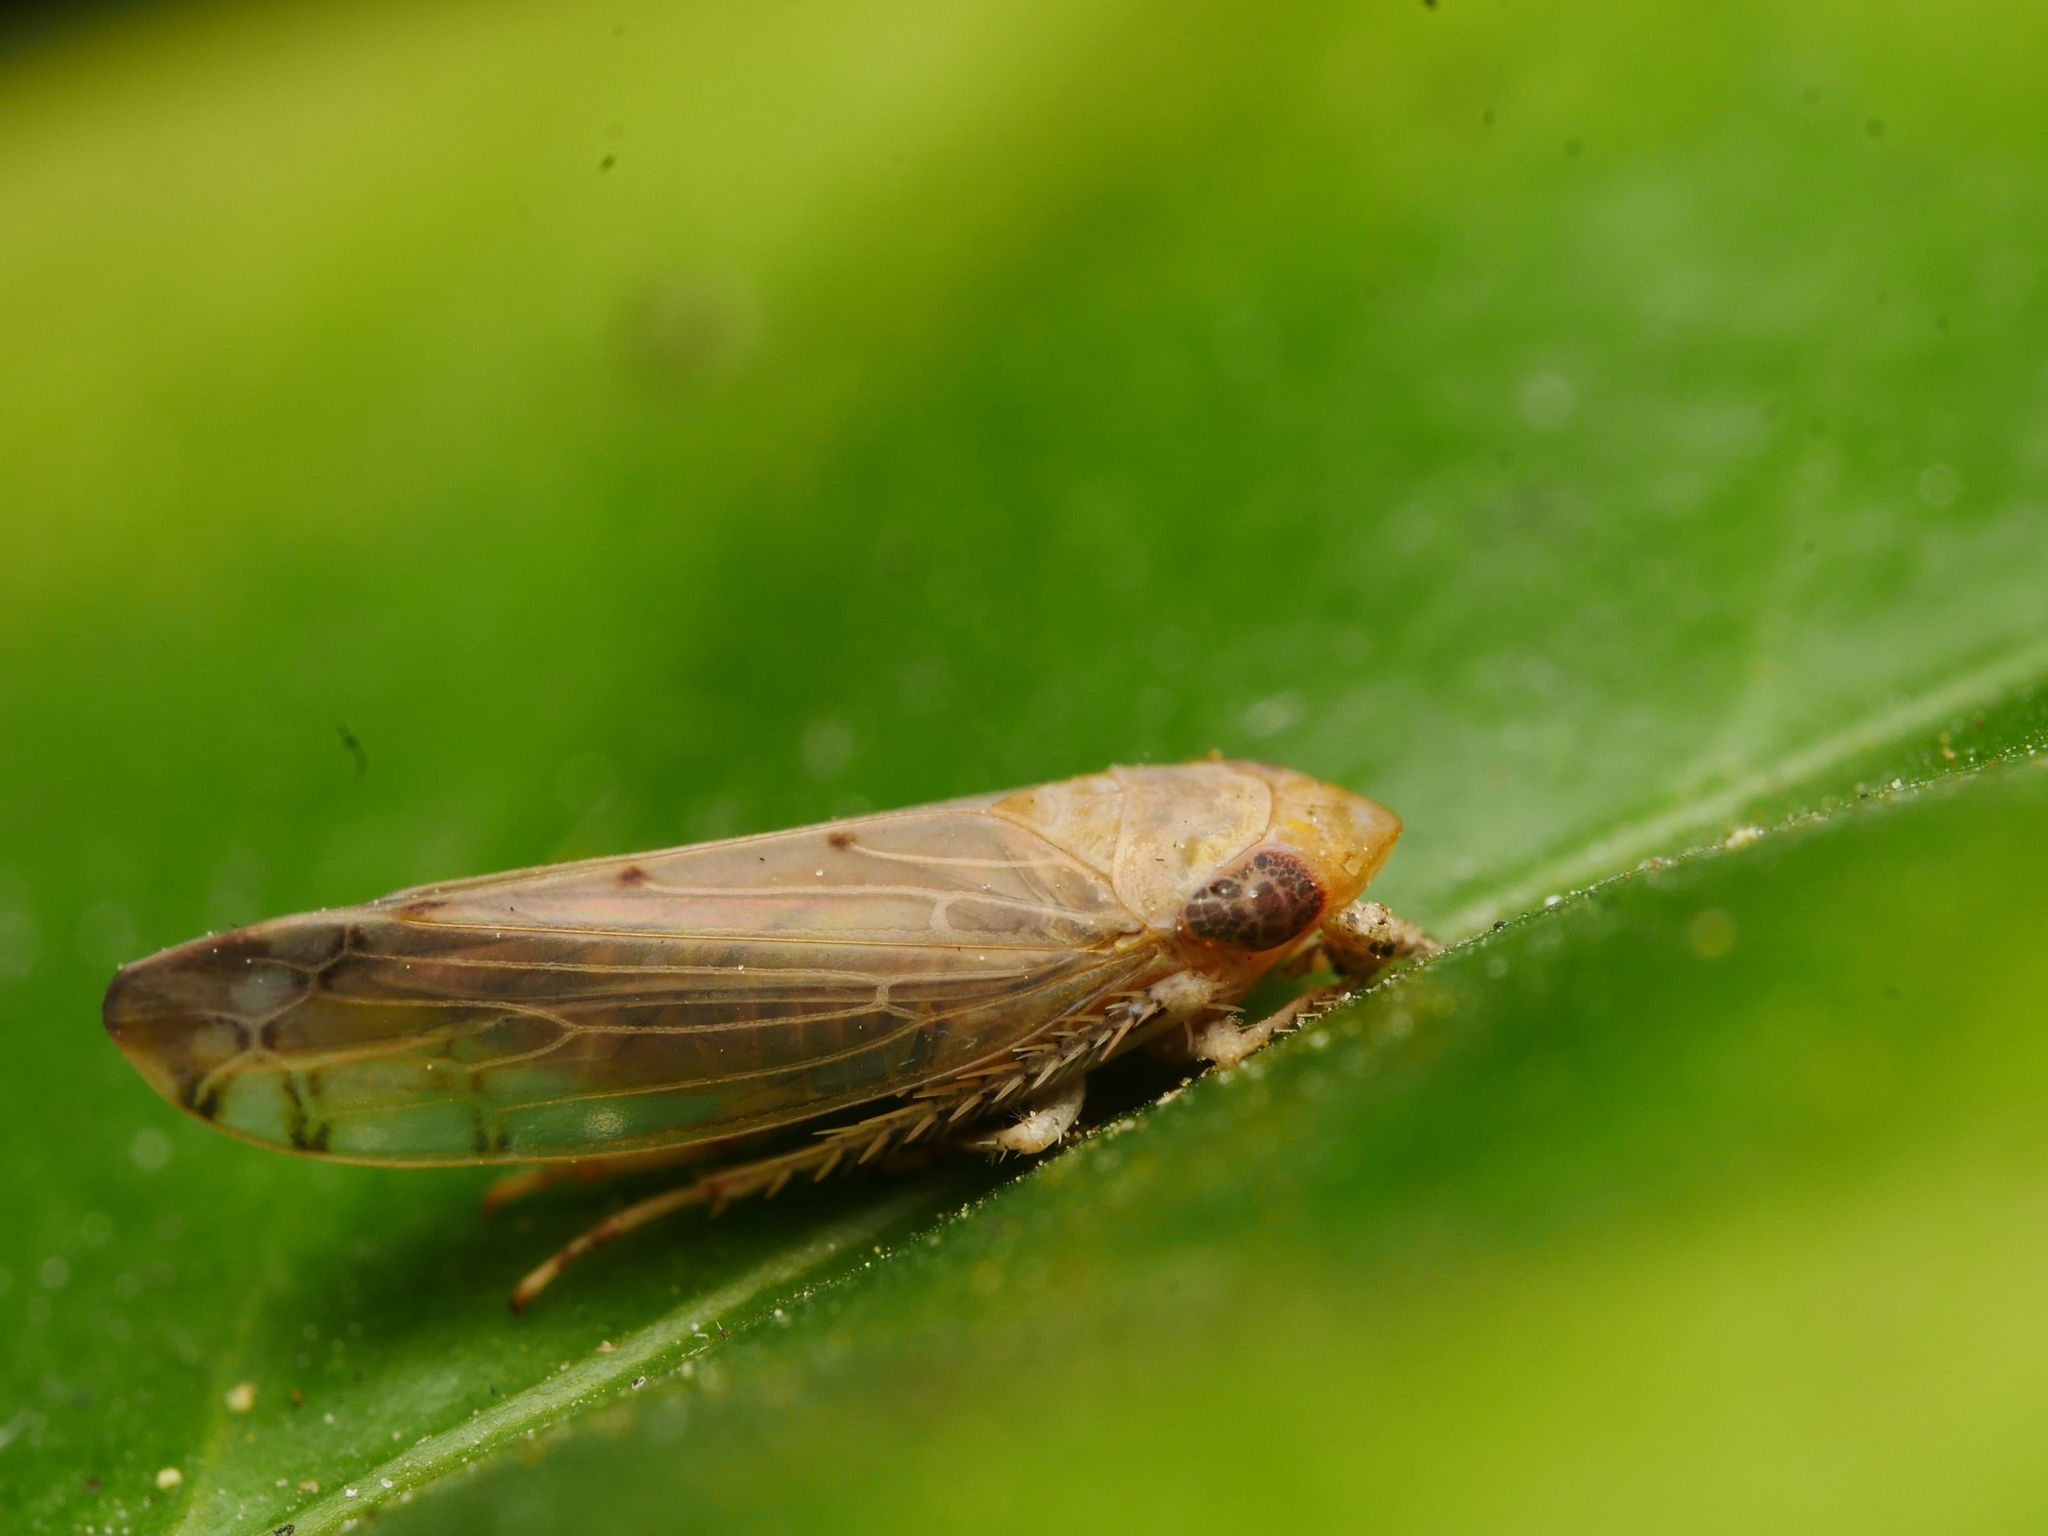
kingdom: Animalia
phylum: Arthropoda
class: Insecta
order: Hemiptera
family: Cicadellidae
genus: Synophropsis
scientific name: Synophropsis lauri
